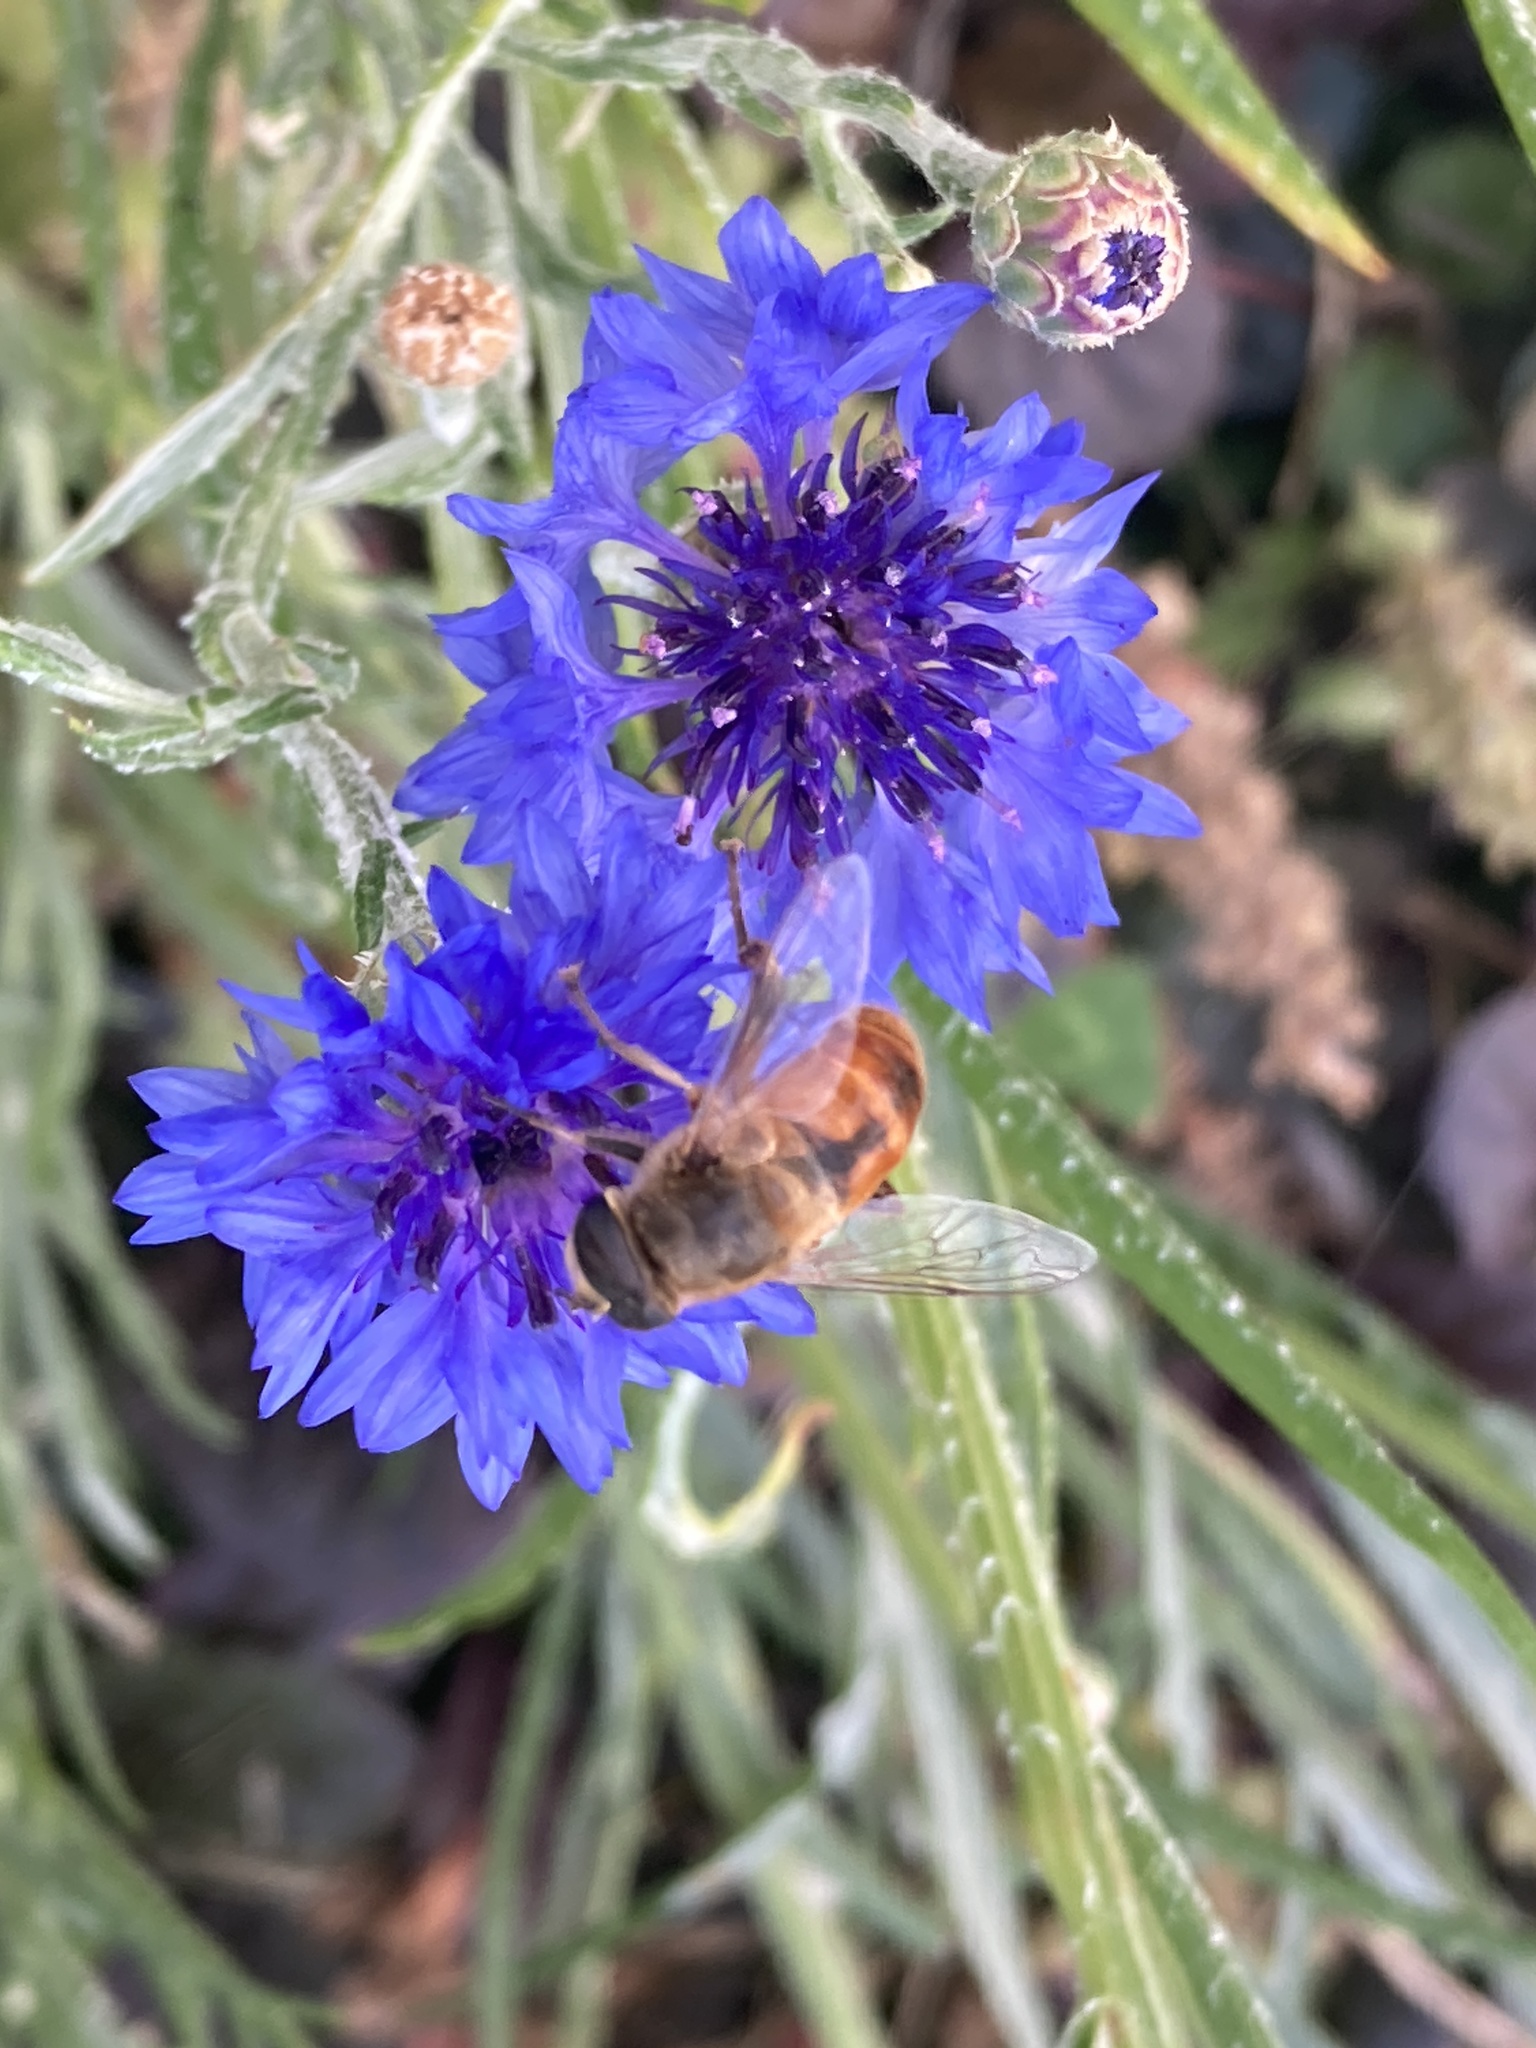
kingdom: Animalia
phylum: Arthropoda
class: Insecta
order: Diptera
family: Syrphidae
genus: Eristalis
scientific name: Eristalis tenax
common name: Drone fly
